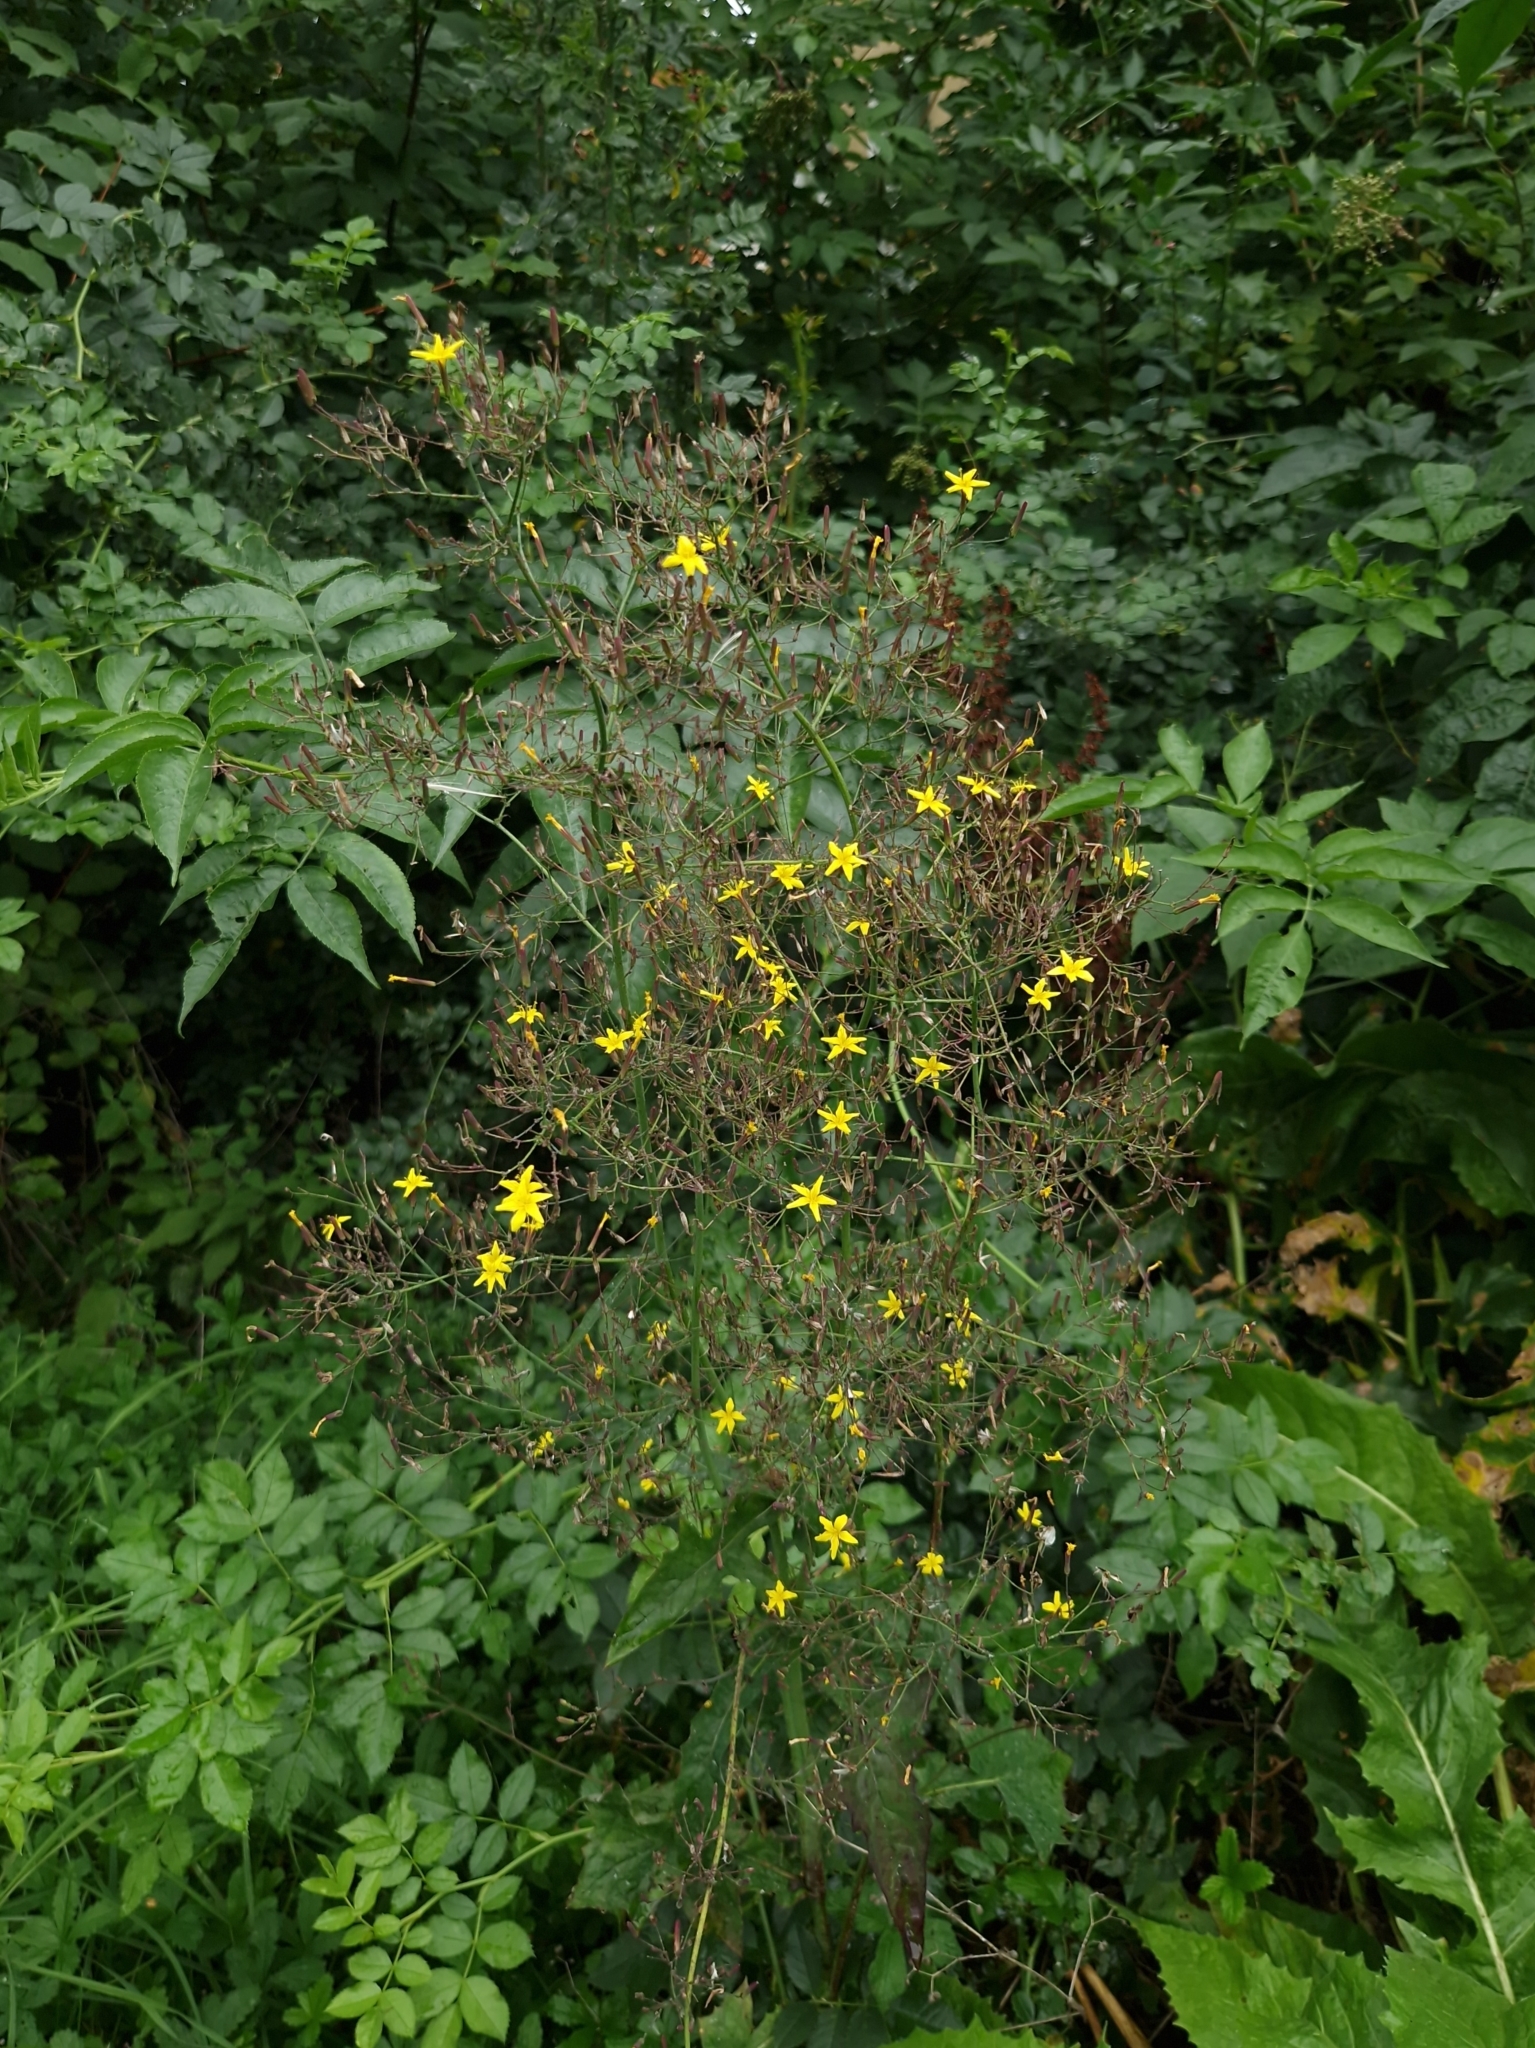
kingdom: Plantae
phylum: Tracheophyta
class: Magnoliopsida
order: Asterales
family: Asteraceae
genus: Mycelis
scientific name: Mycelis muralis
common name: Wall lettuce
